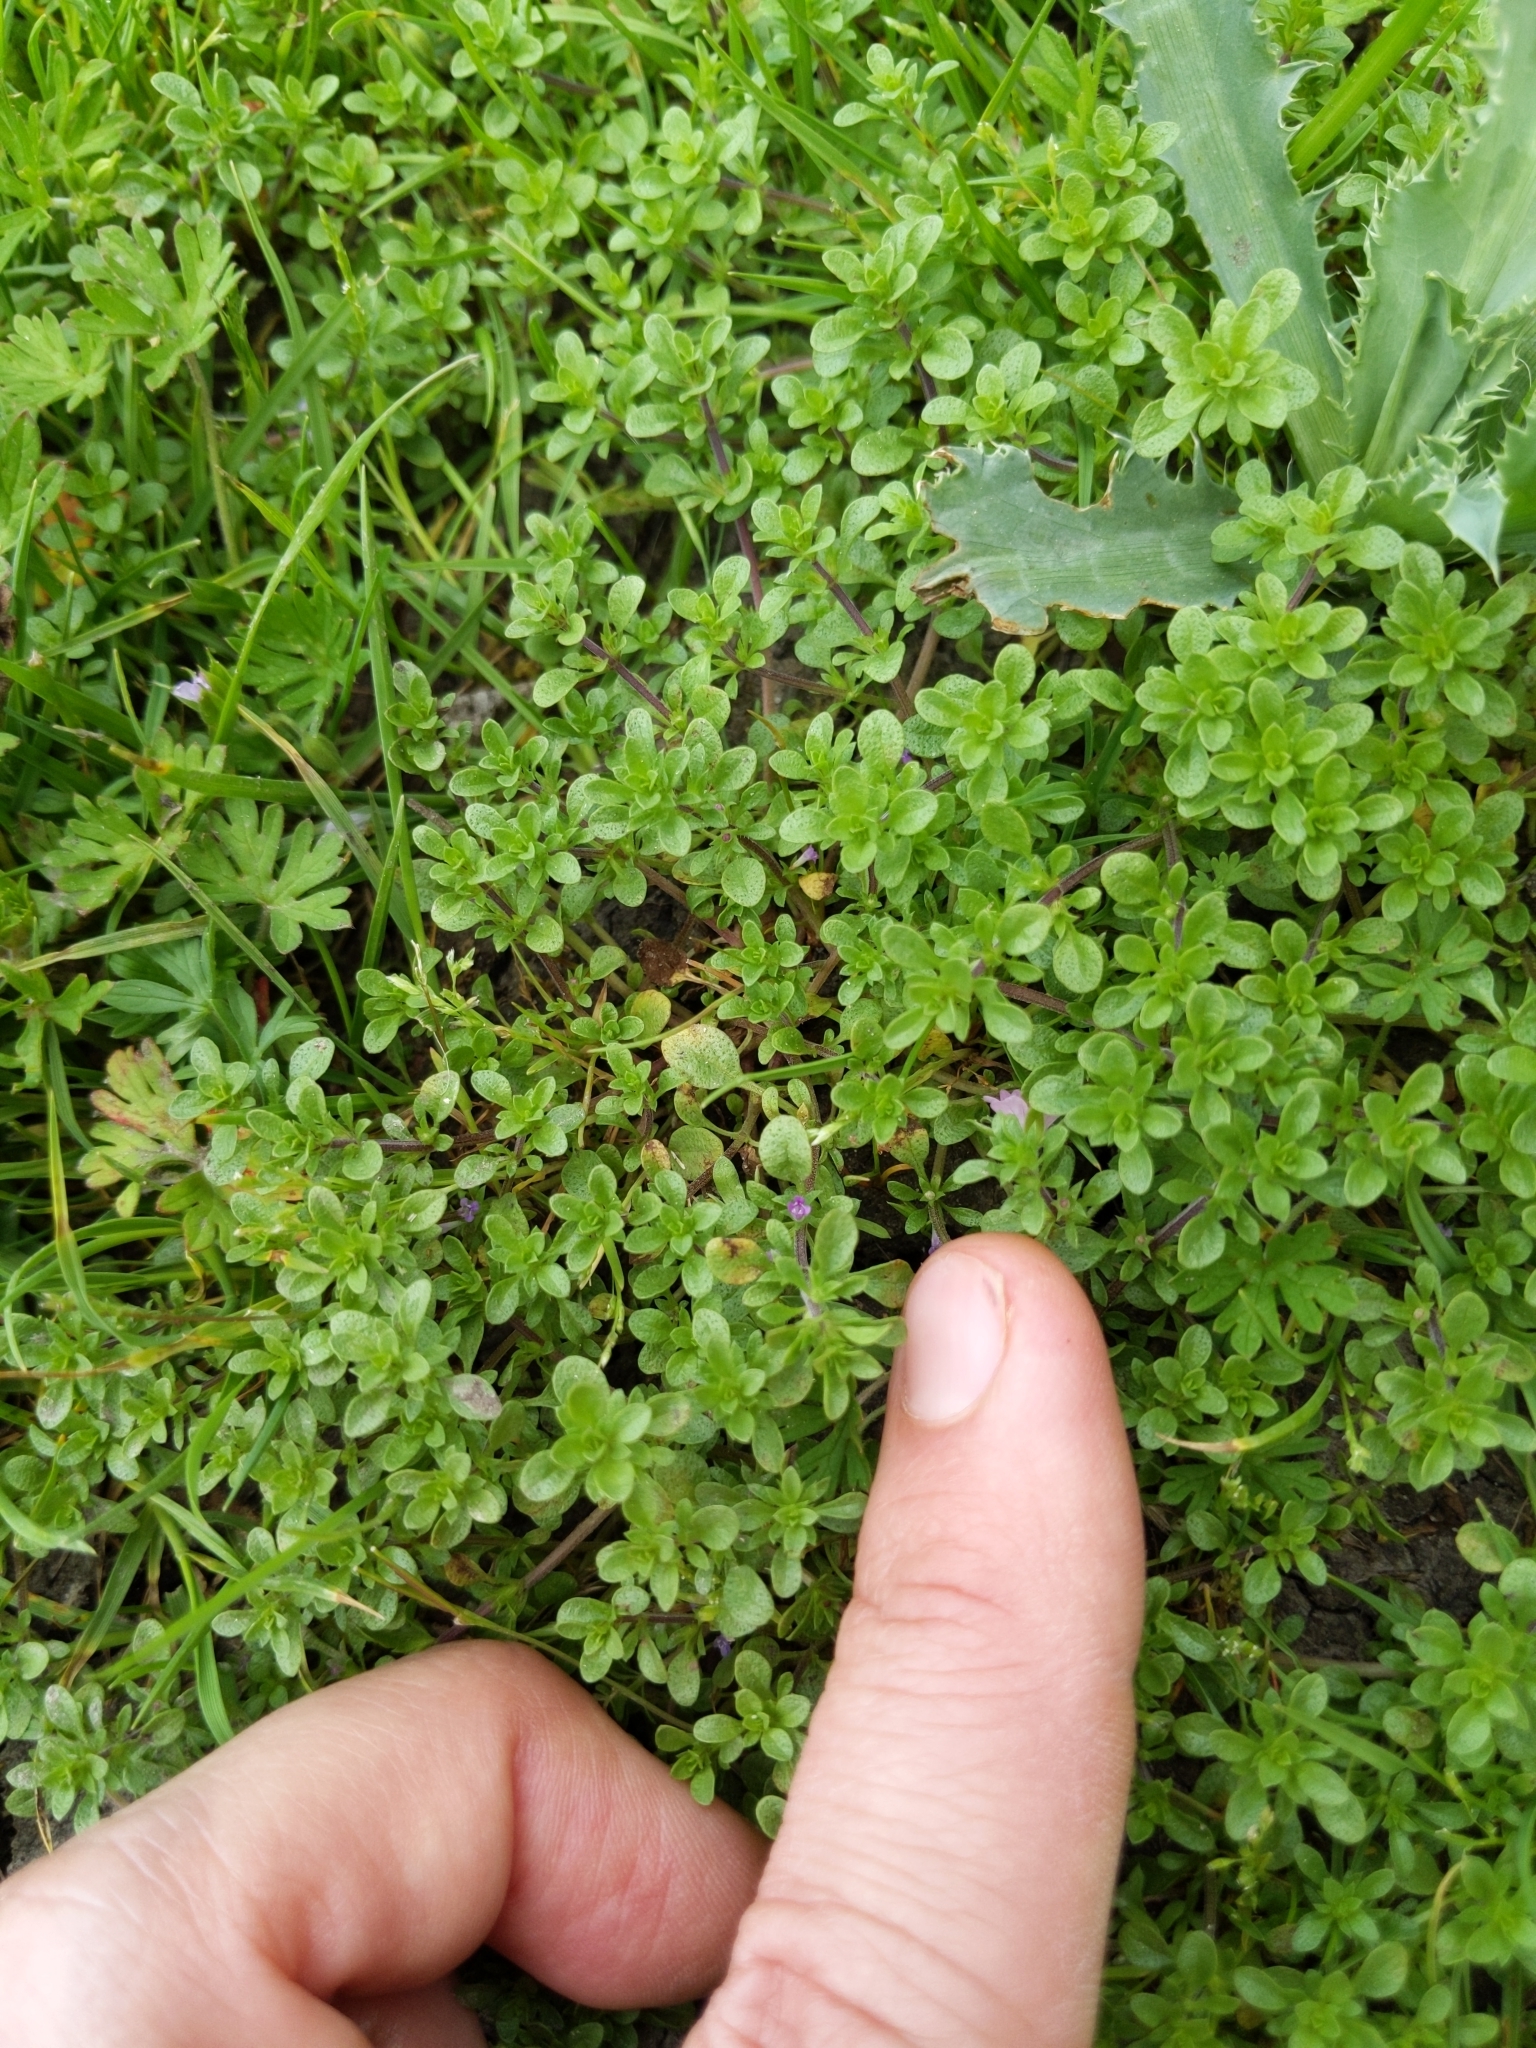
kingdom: Plantae
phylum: Tracheophyta
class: Magnoliopsida
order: Lamiales
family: Lamiaceae
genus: Pogogyne
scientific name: Pogogyne serpylloides
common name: Thymeleaf mesamint
